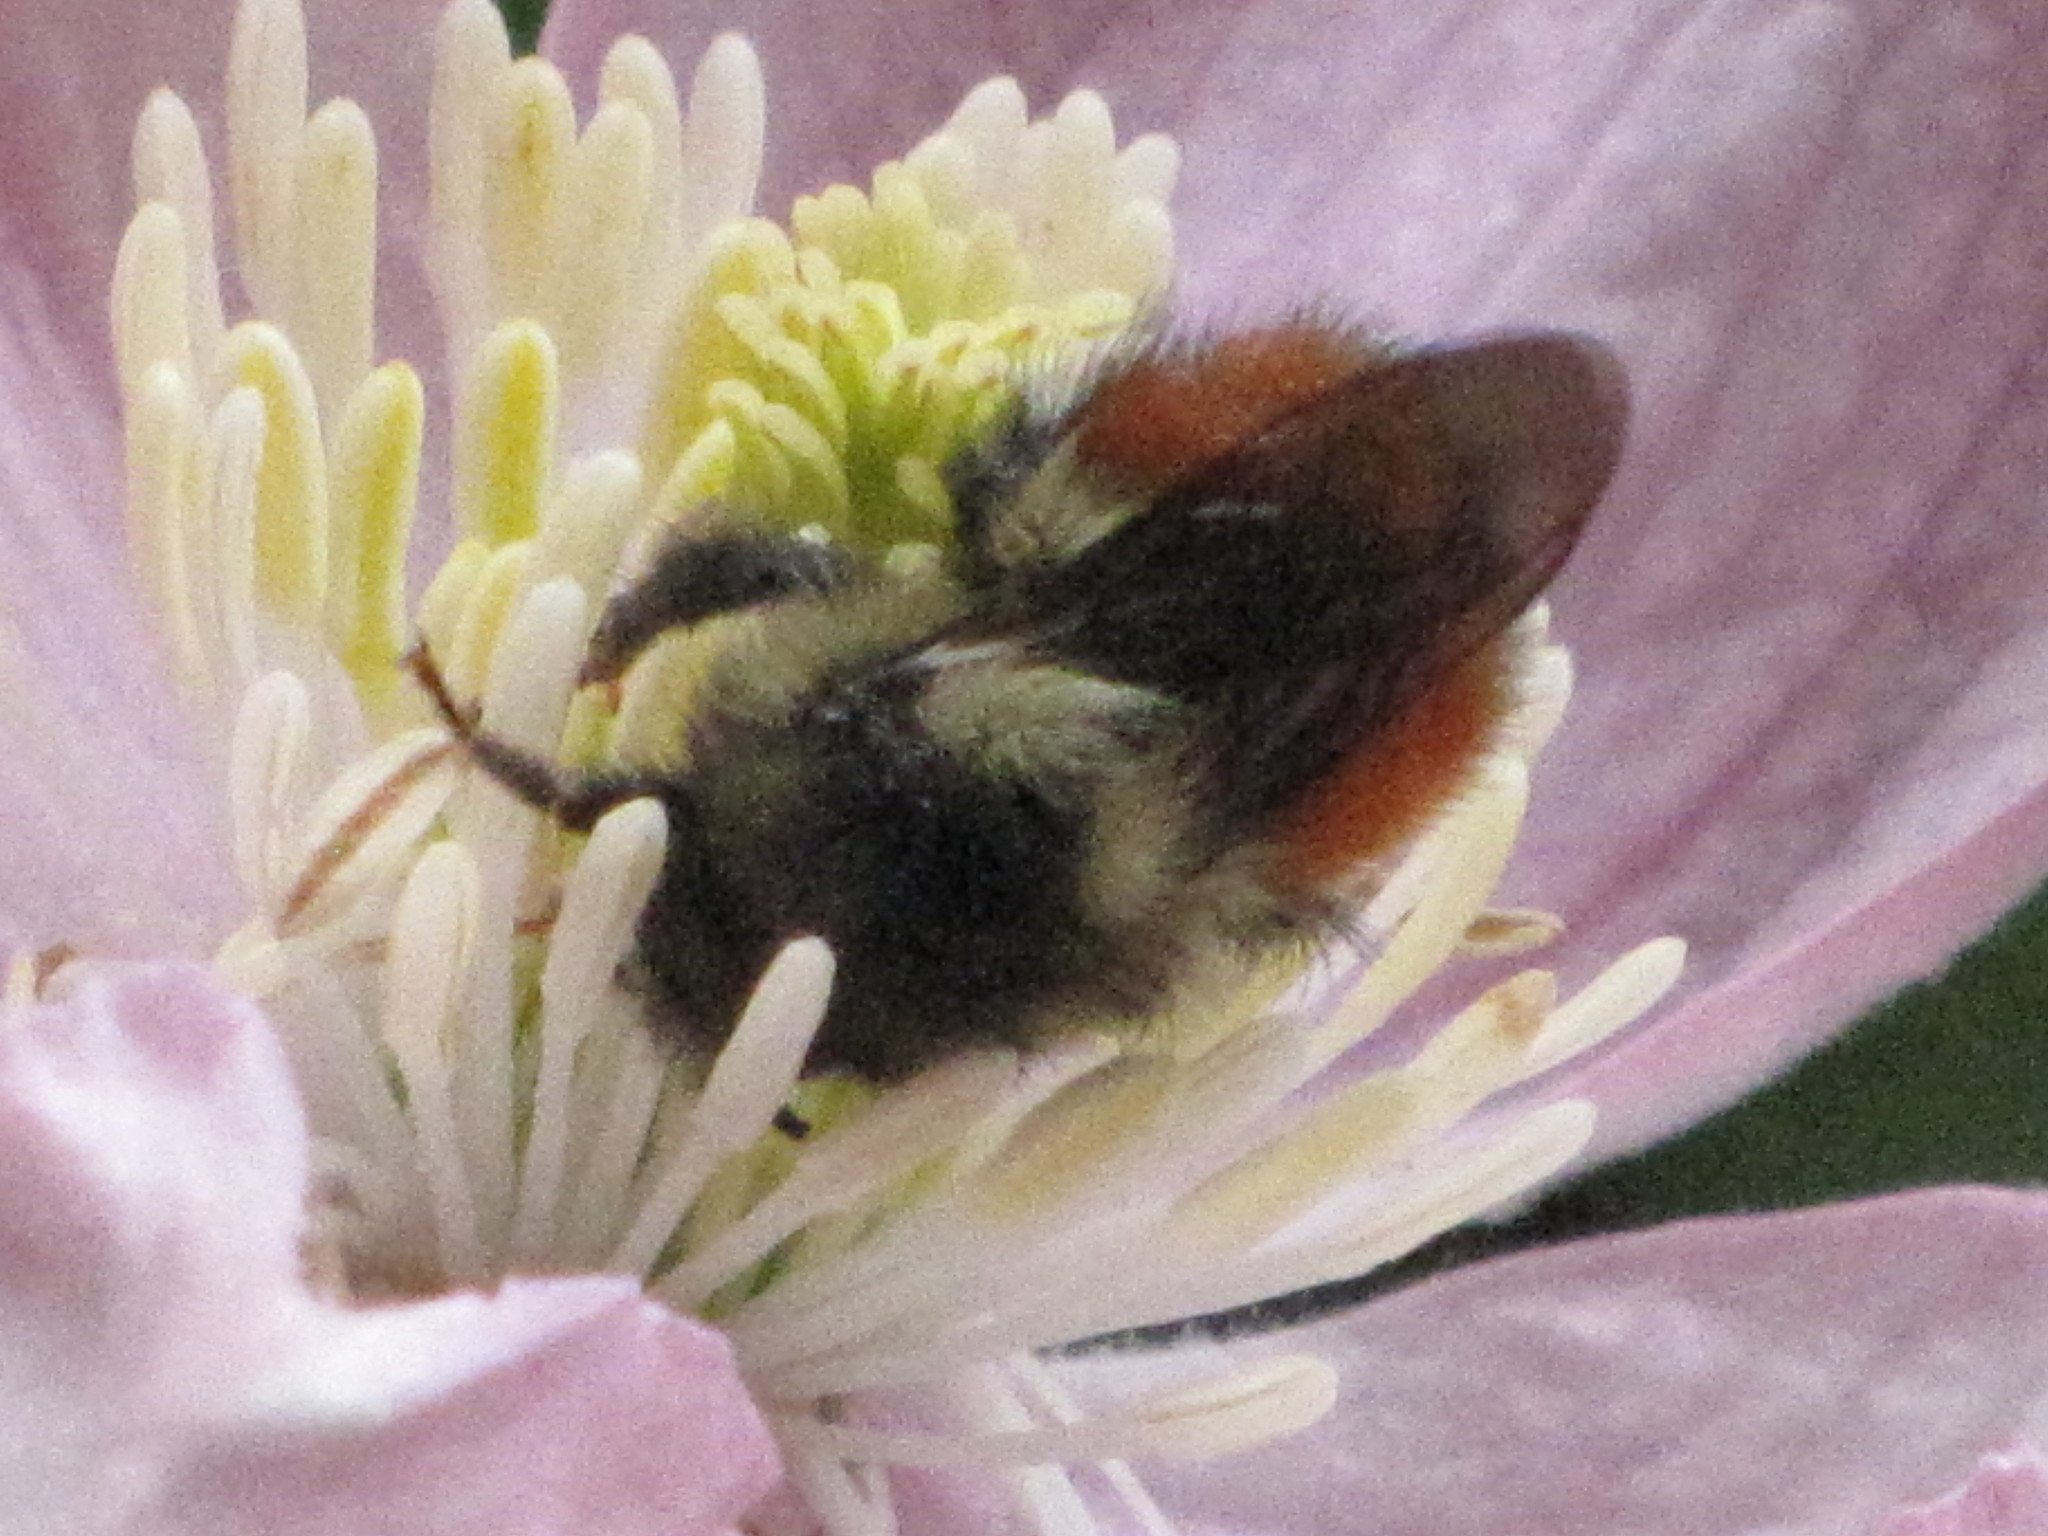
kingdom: Animalia
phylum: Arthropoda
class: Insecta
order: Hymenoptera
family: Apidae
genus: Bombus
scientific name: Bombus melanopygus
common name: Black tail bumble bee
